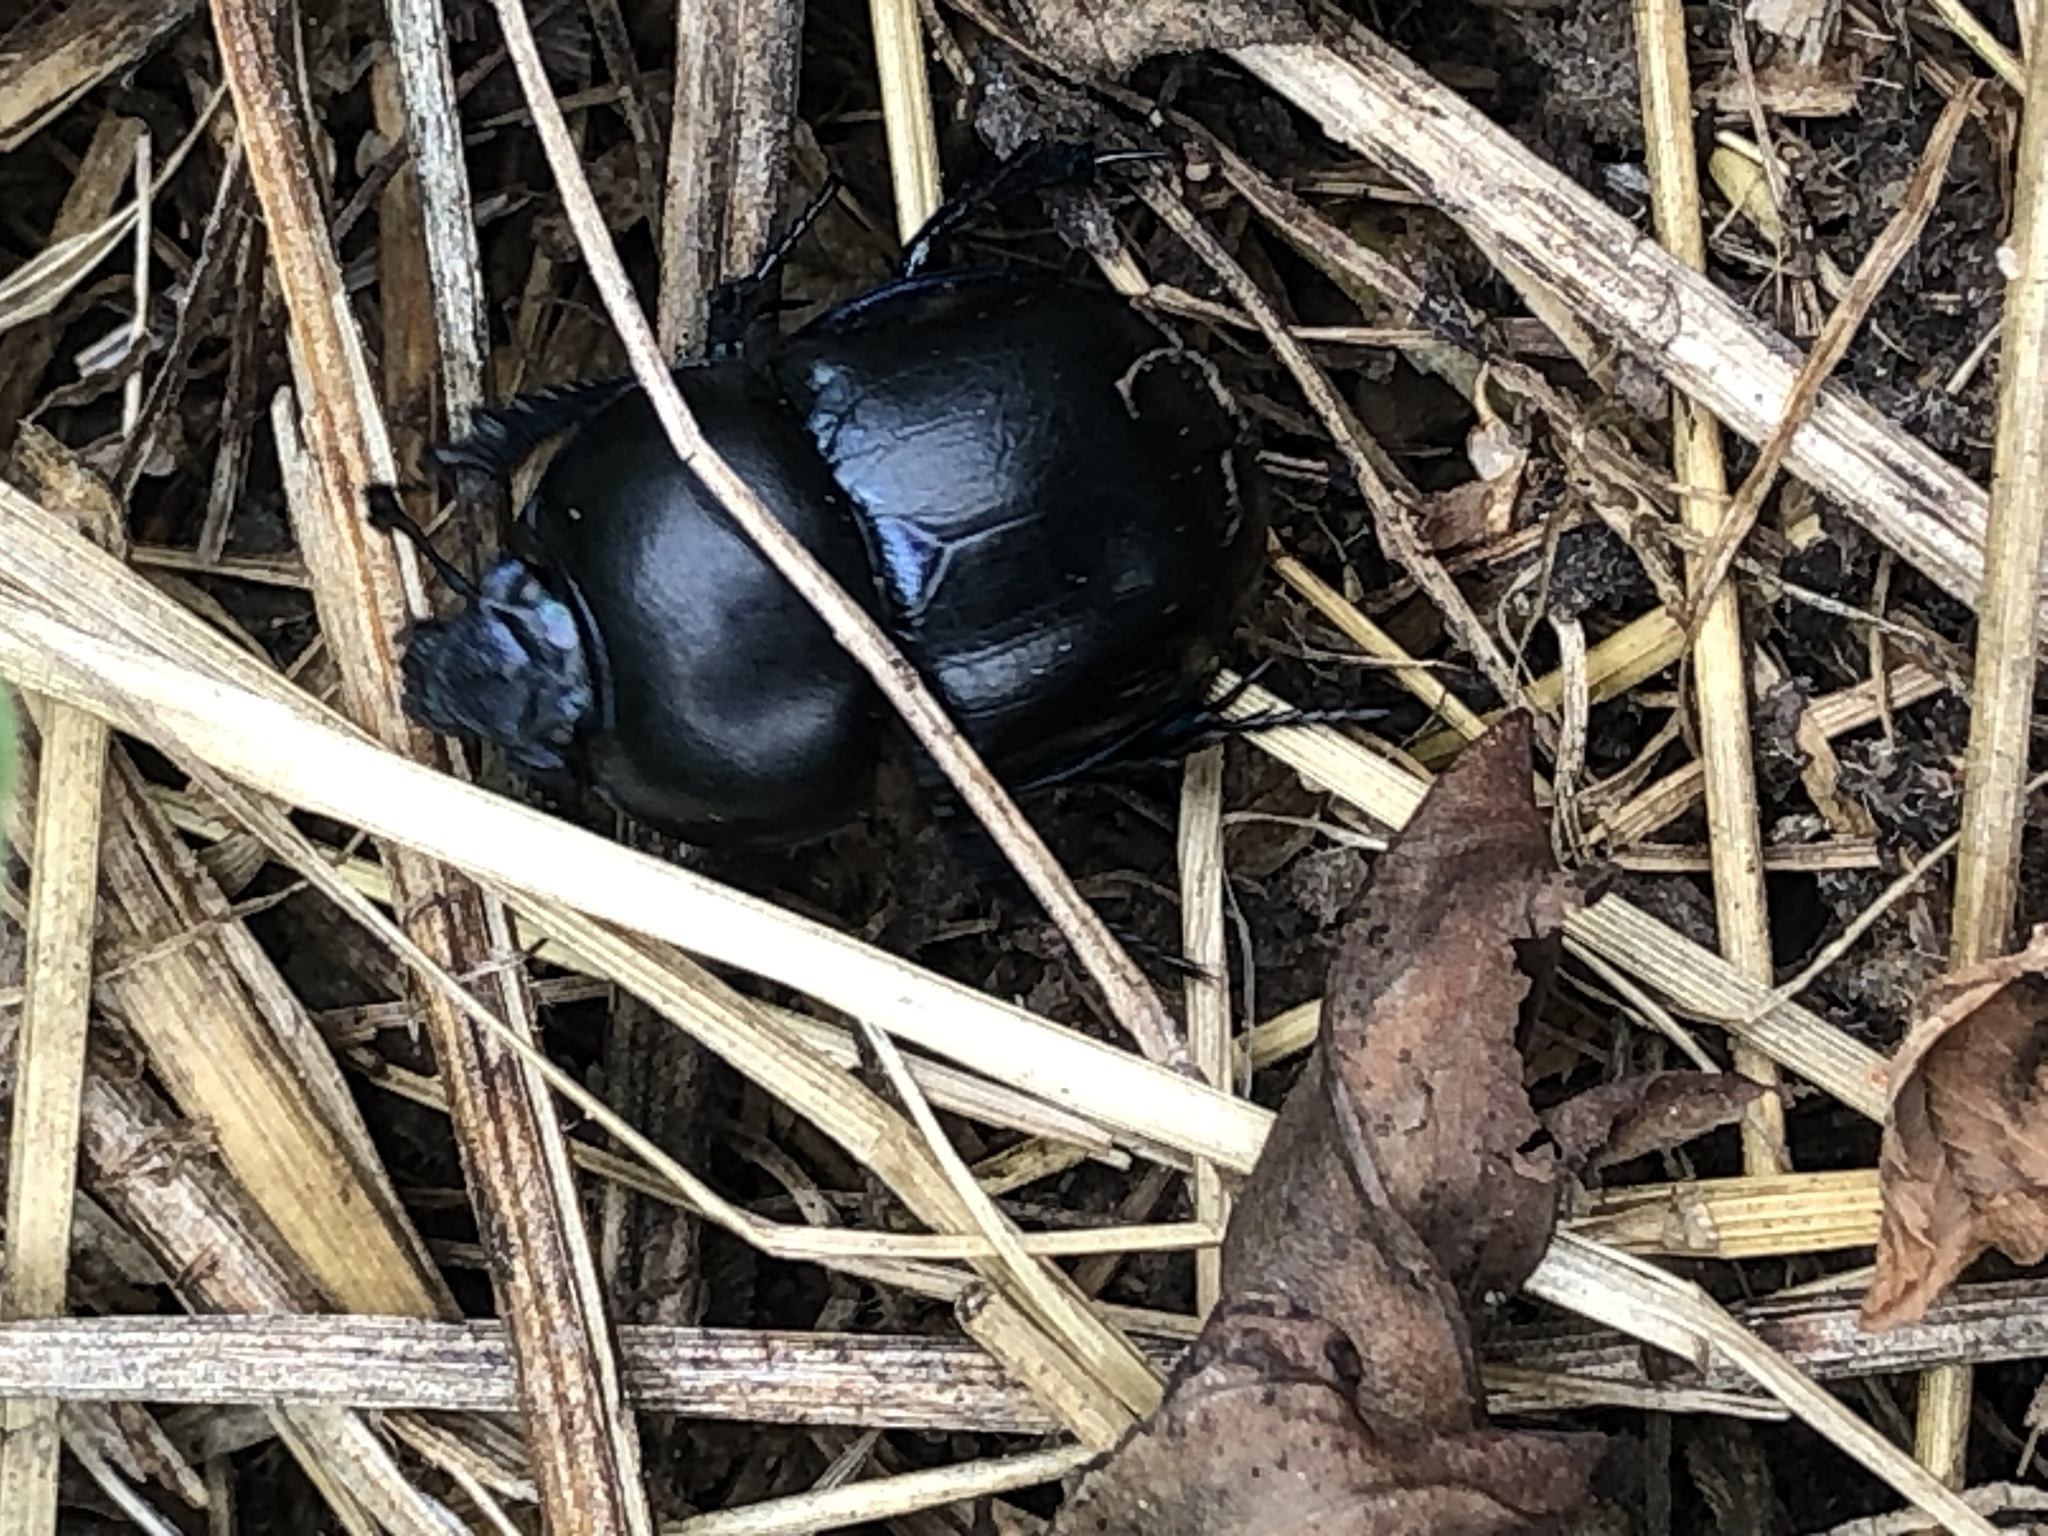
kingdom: Animalia
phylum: Arthropoda
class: Insecta
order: Coleoptera
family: Geotrupidae
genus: Trypocopris
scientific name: Trypocopris vernalis
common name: Spring dumbledor
